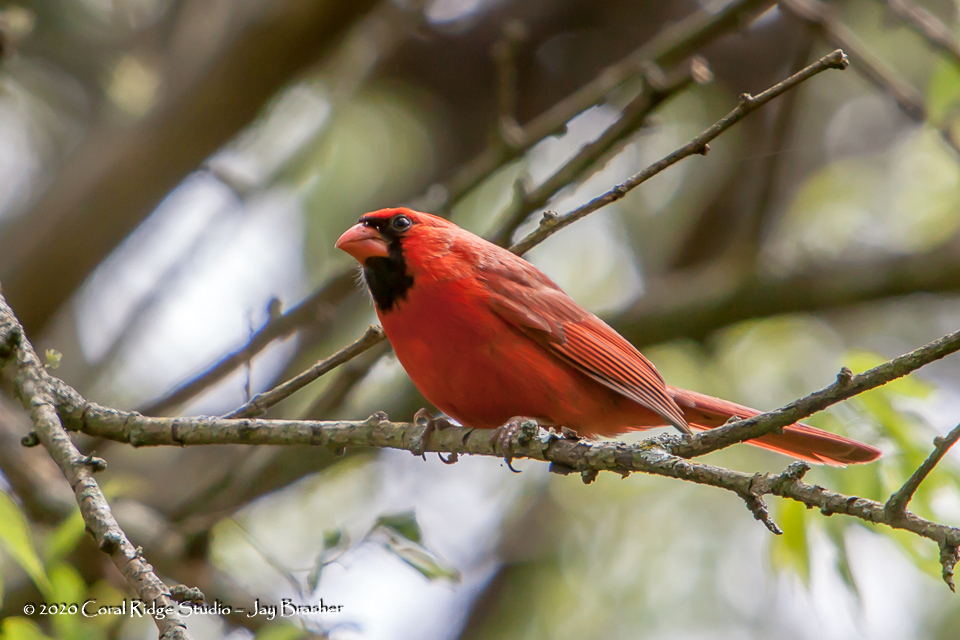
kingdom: Animalia
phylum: Chordata
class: Aves
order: Passeriformes
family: Cardinalidae
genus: Cardinalis
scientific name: Cardinalis cardinalis
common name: Northern cardinal
